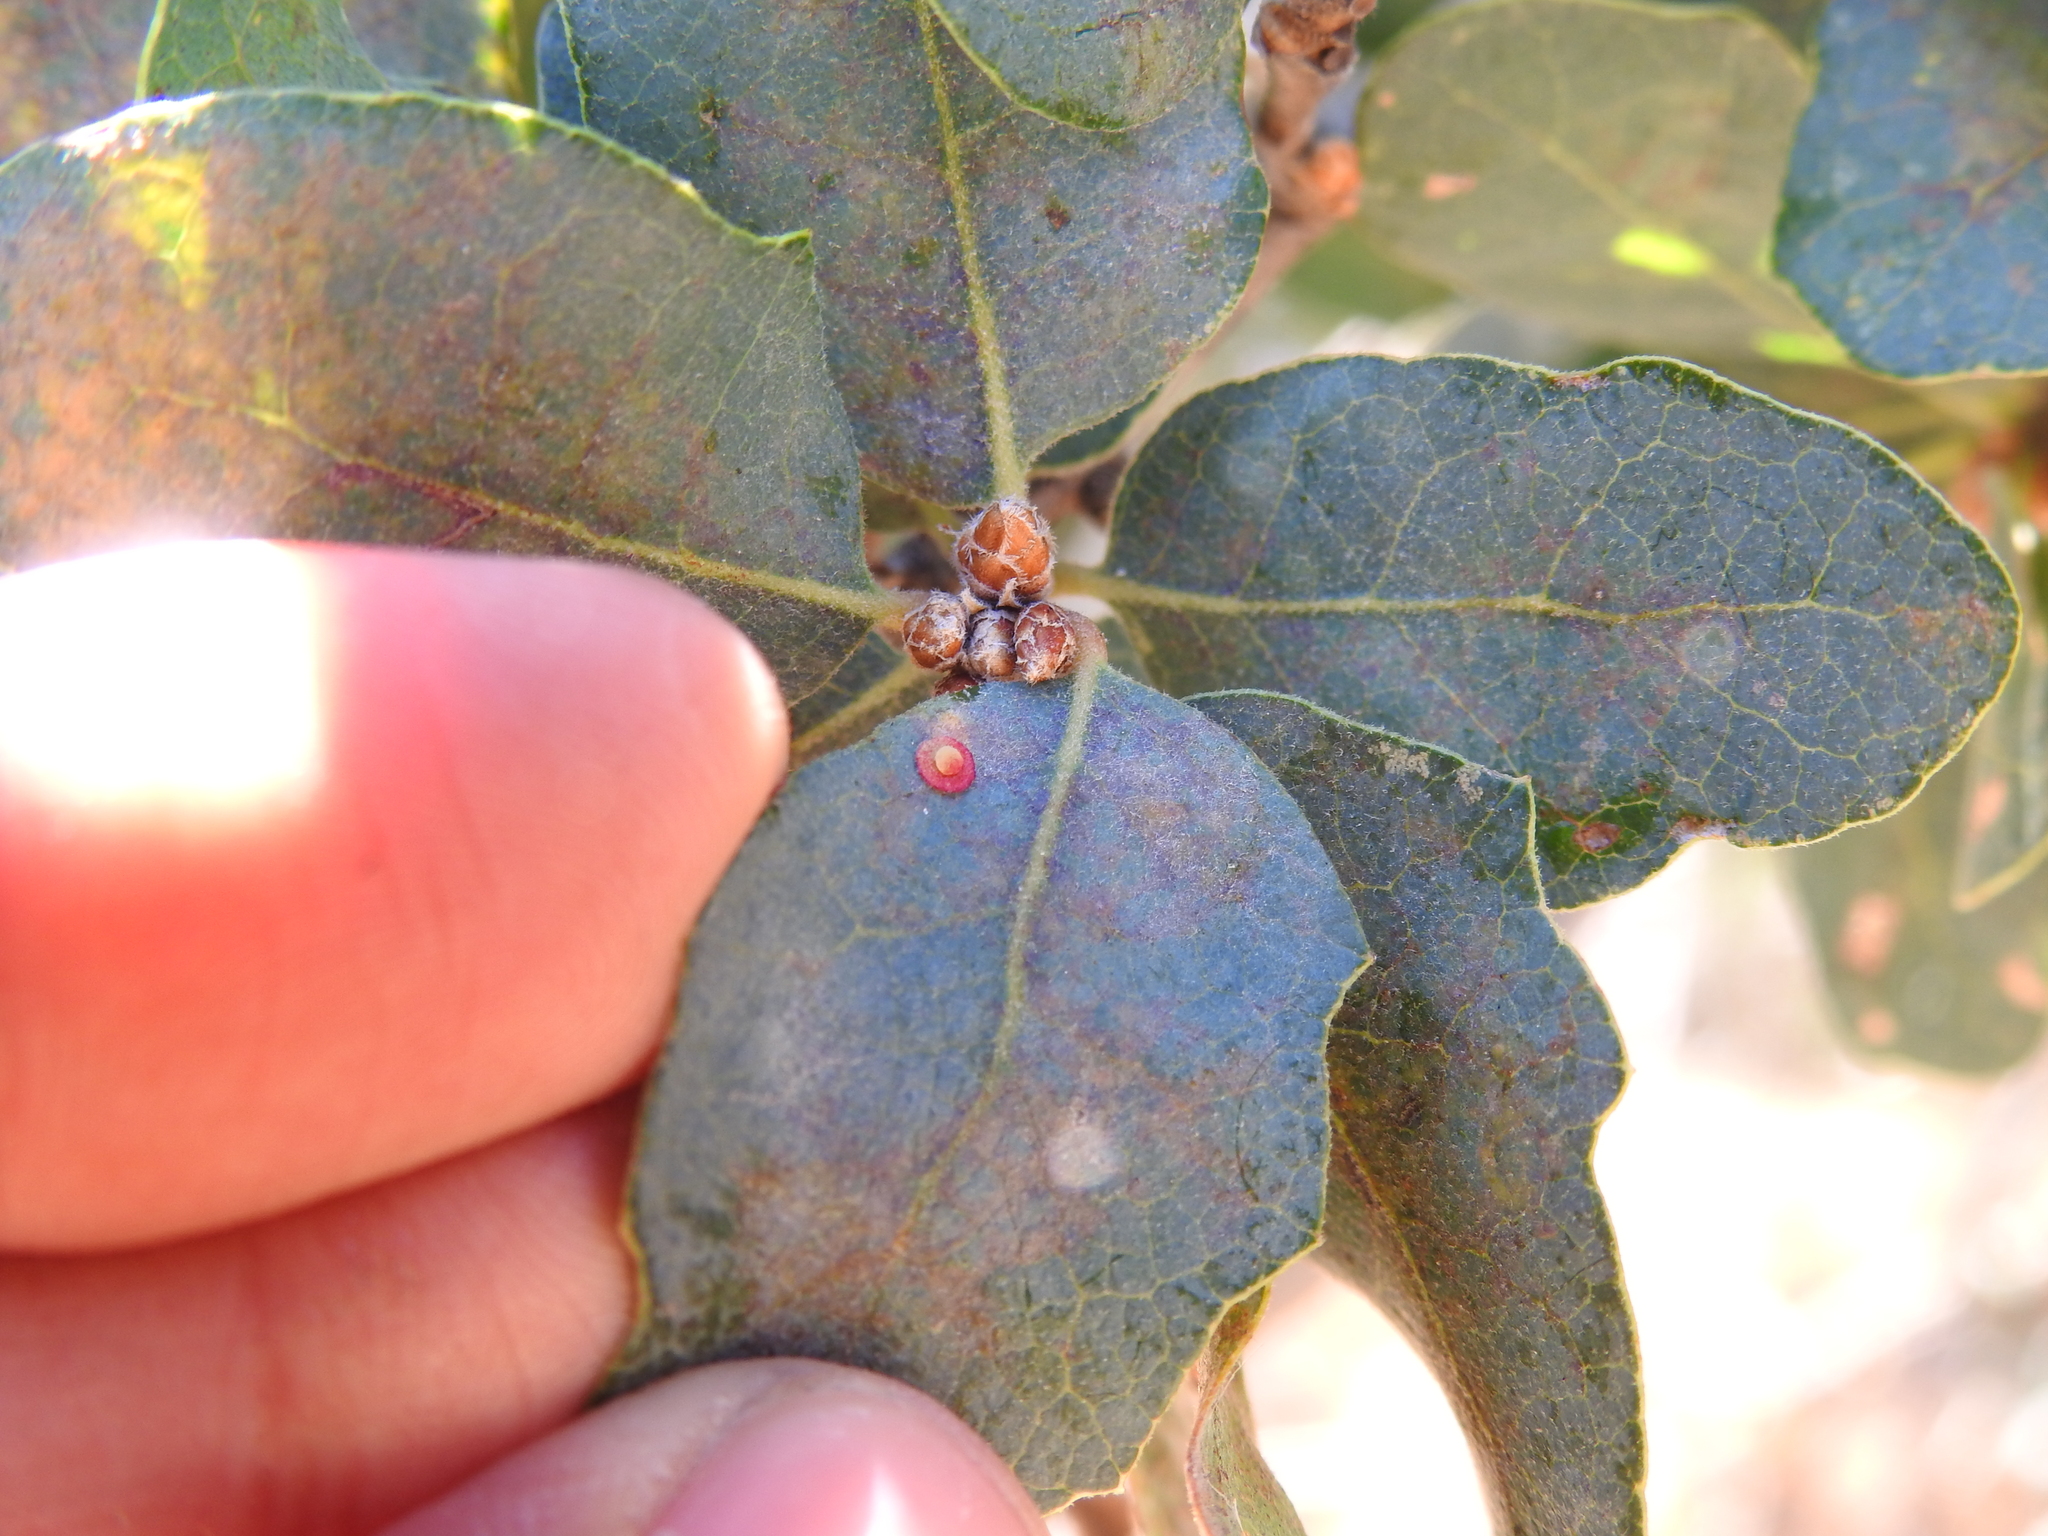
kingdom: Animalia
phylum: Arthropoda
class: Insecta
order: Hymenoptera
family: Cynipidae
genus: Andricus
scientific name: Andricus
